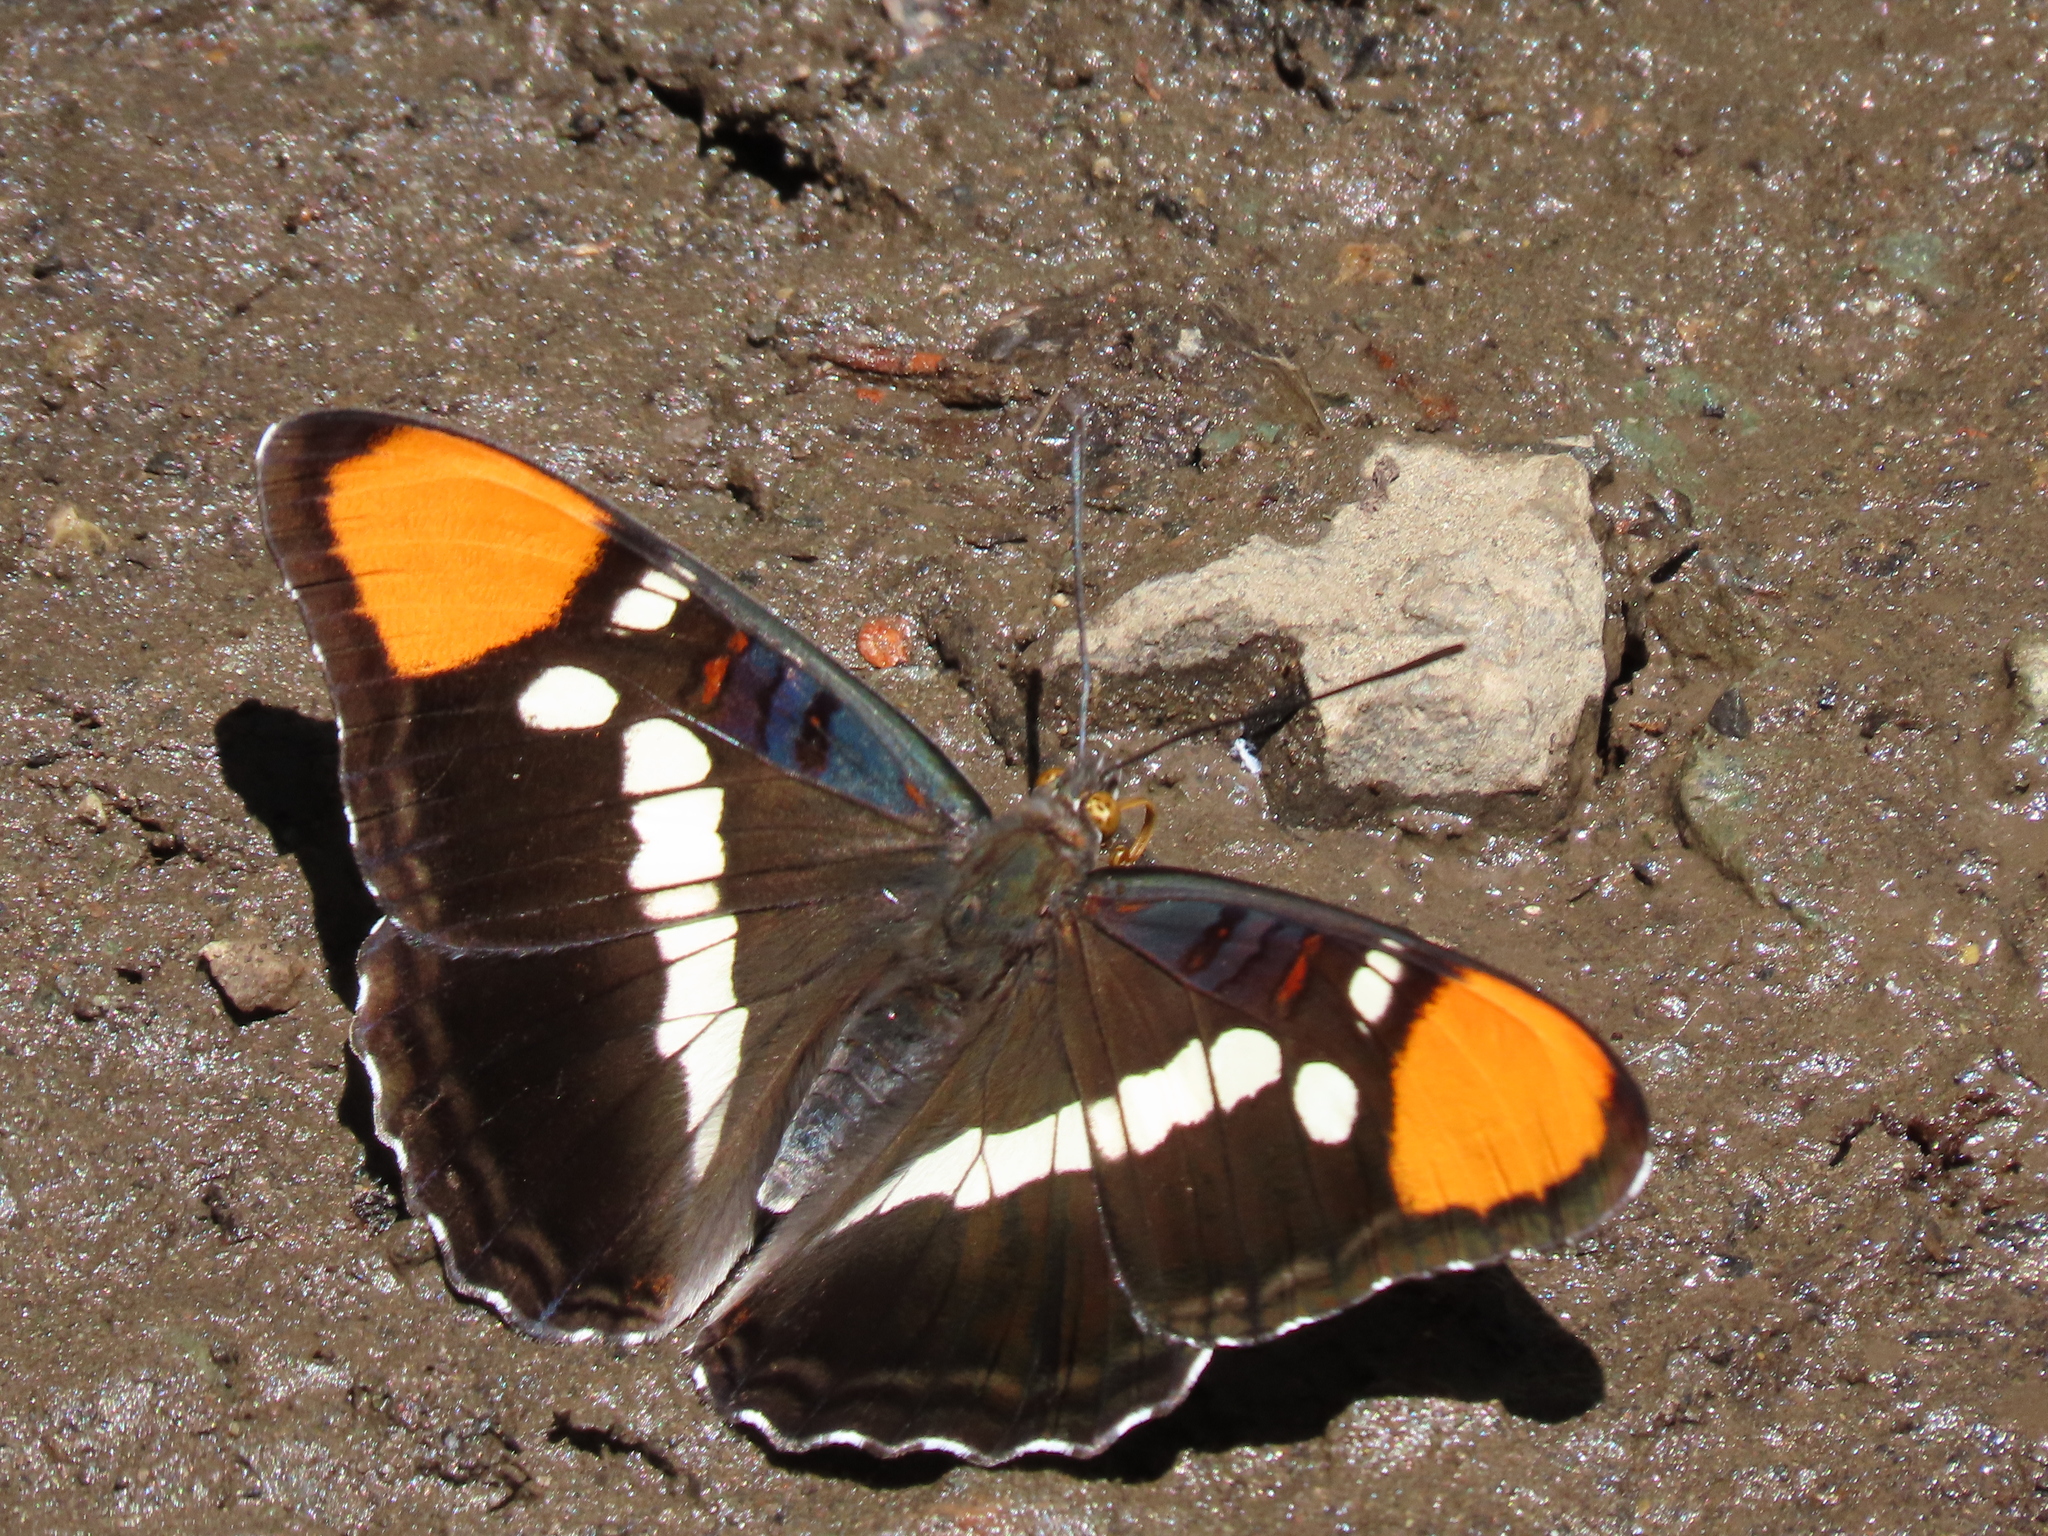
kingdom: Animalia
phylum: Arthropoda
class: Insecta
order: Lepidoptera
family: Nymphalidae
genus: Limenitis
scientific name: Limenitis bredowii
